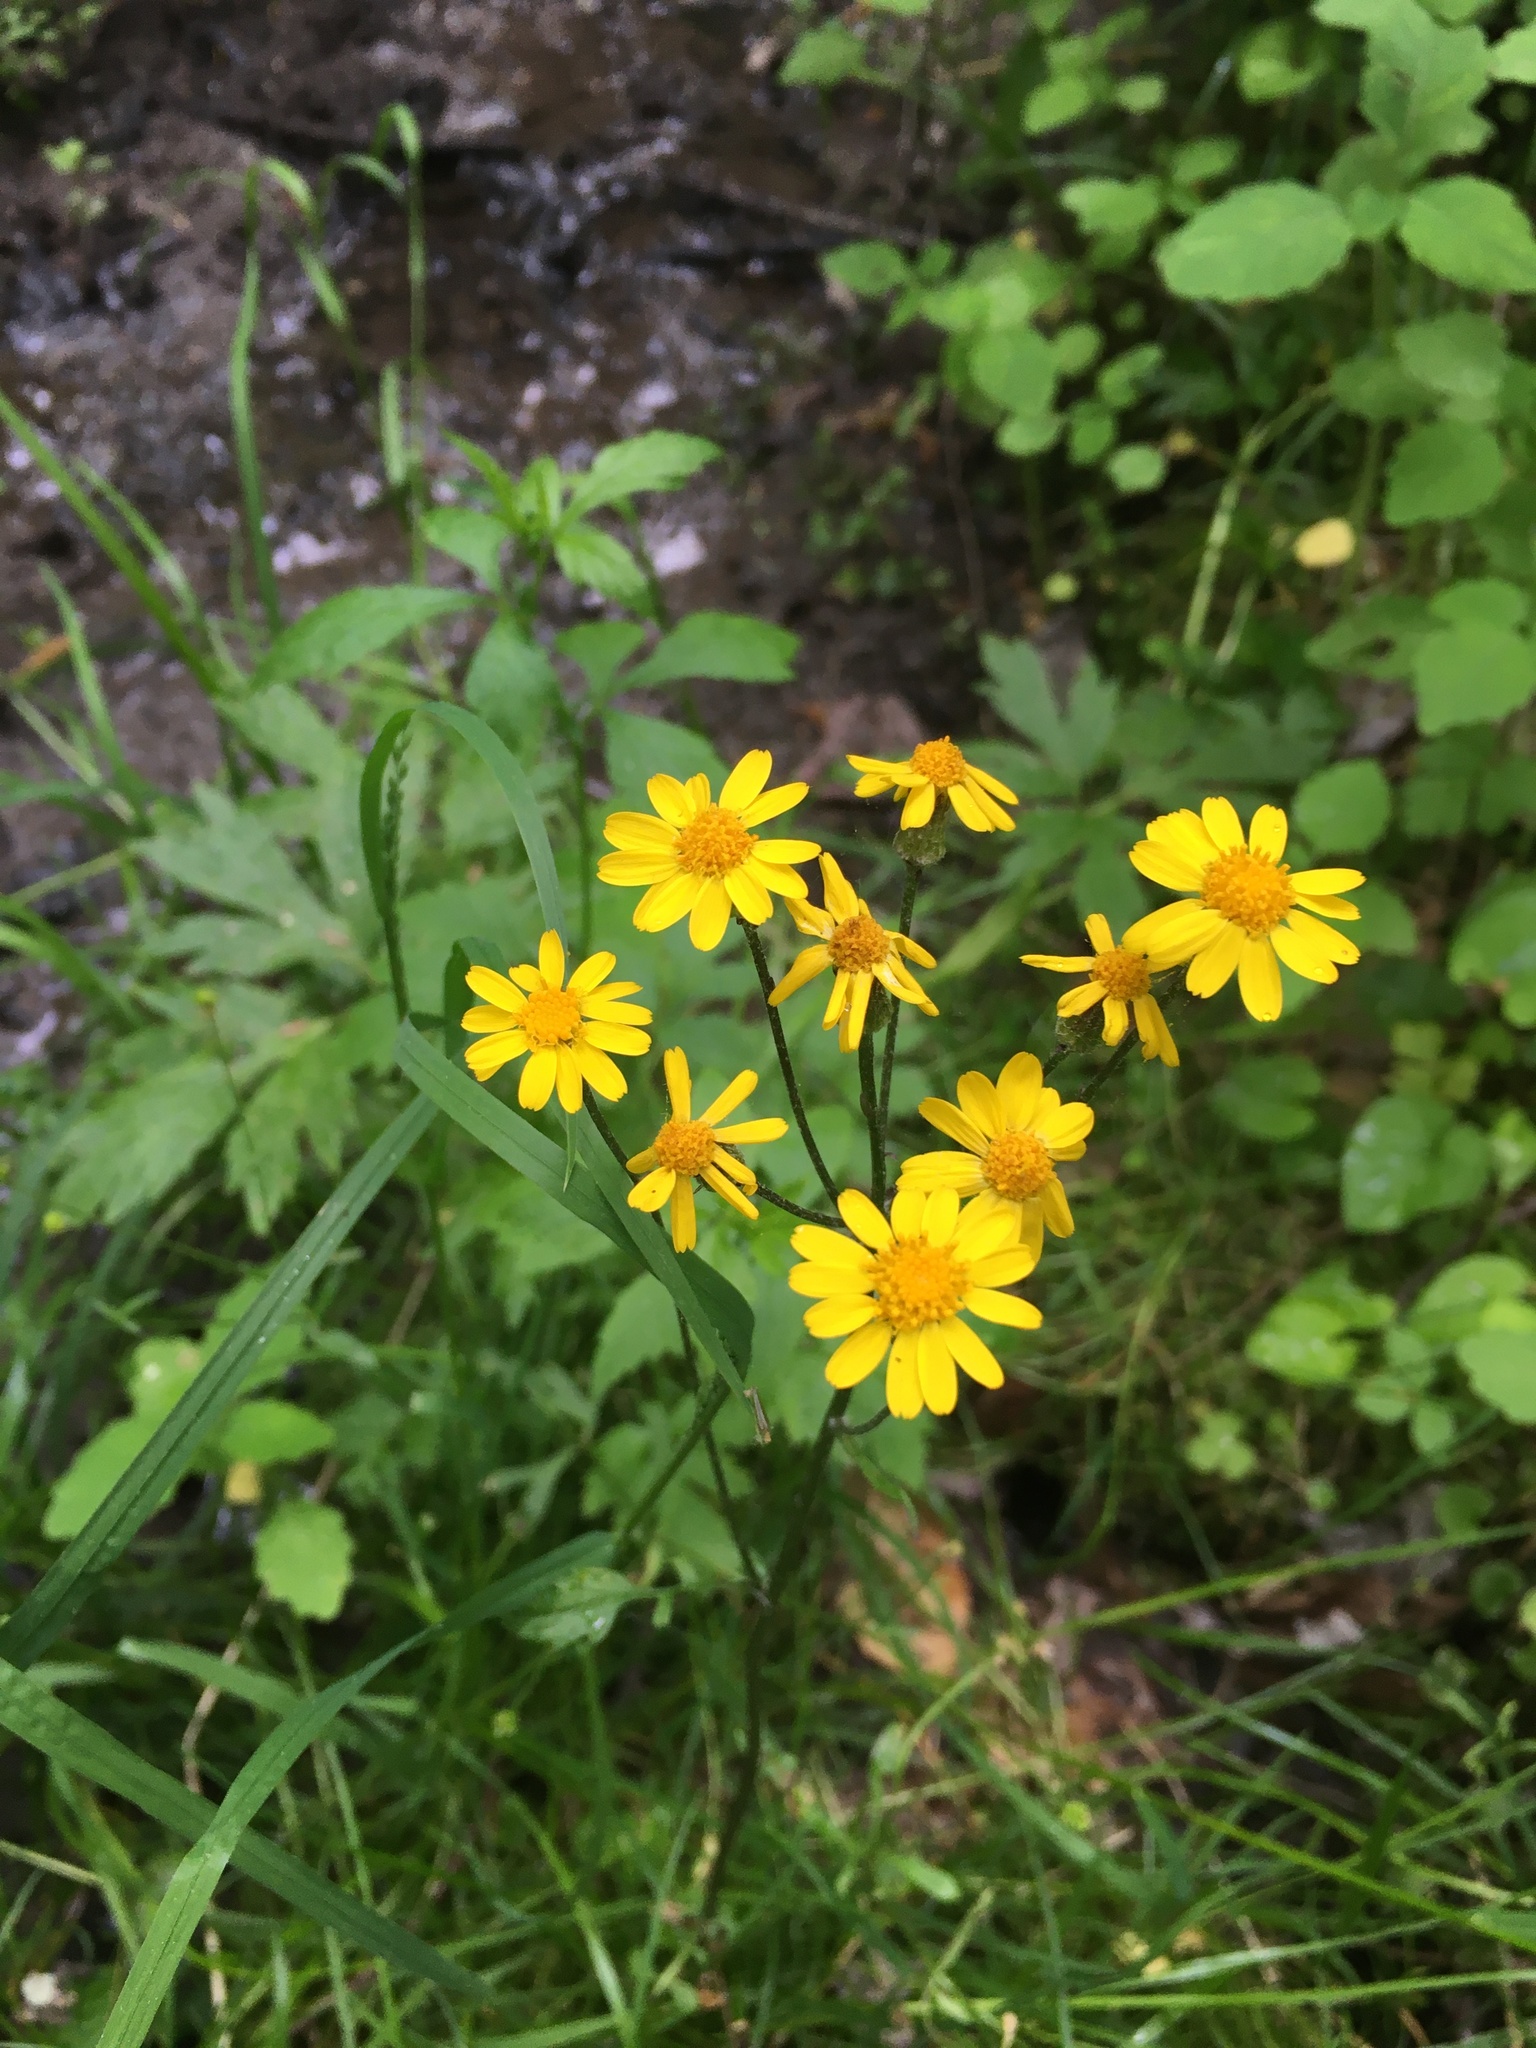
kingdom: Plantae
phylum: Tracheophyta
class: Magnoliopsida
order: Asterales
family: Asteraceae
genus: Packera
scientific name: Packera aurea
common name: Golden groundsel
